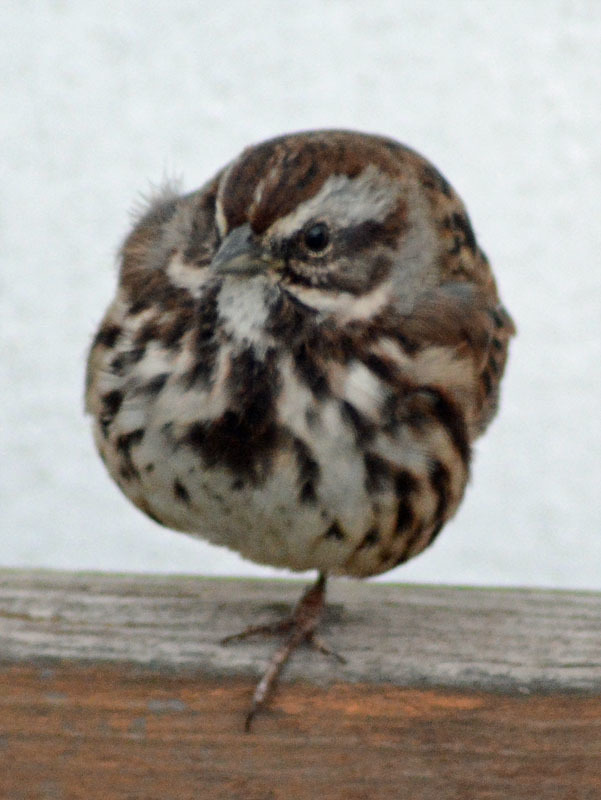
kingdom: Animalia
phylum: Chordata
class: Aves
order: Passeriformes
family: Passerellidae
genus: Melospiza
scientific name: Melospiza melodia
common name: Song sparrow
